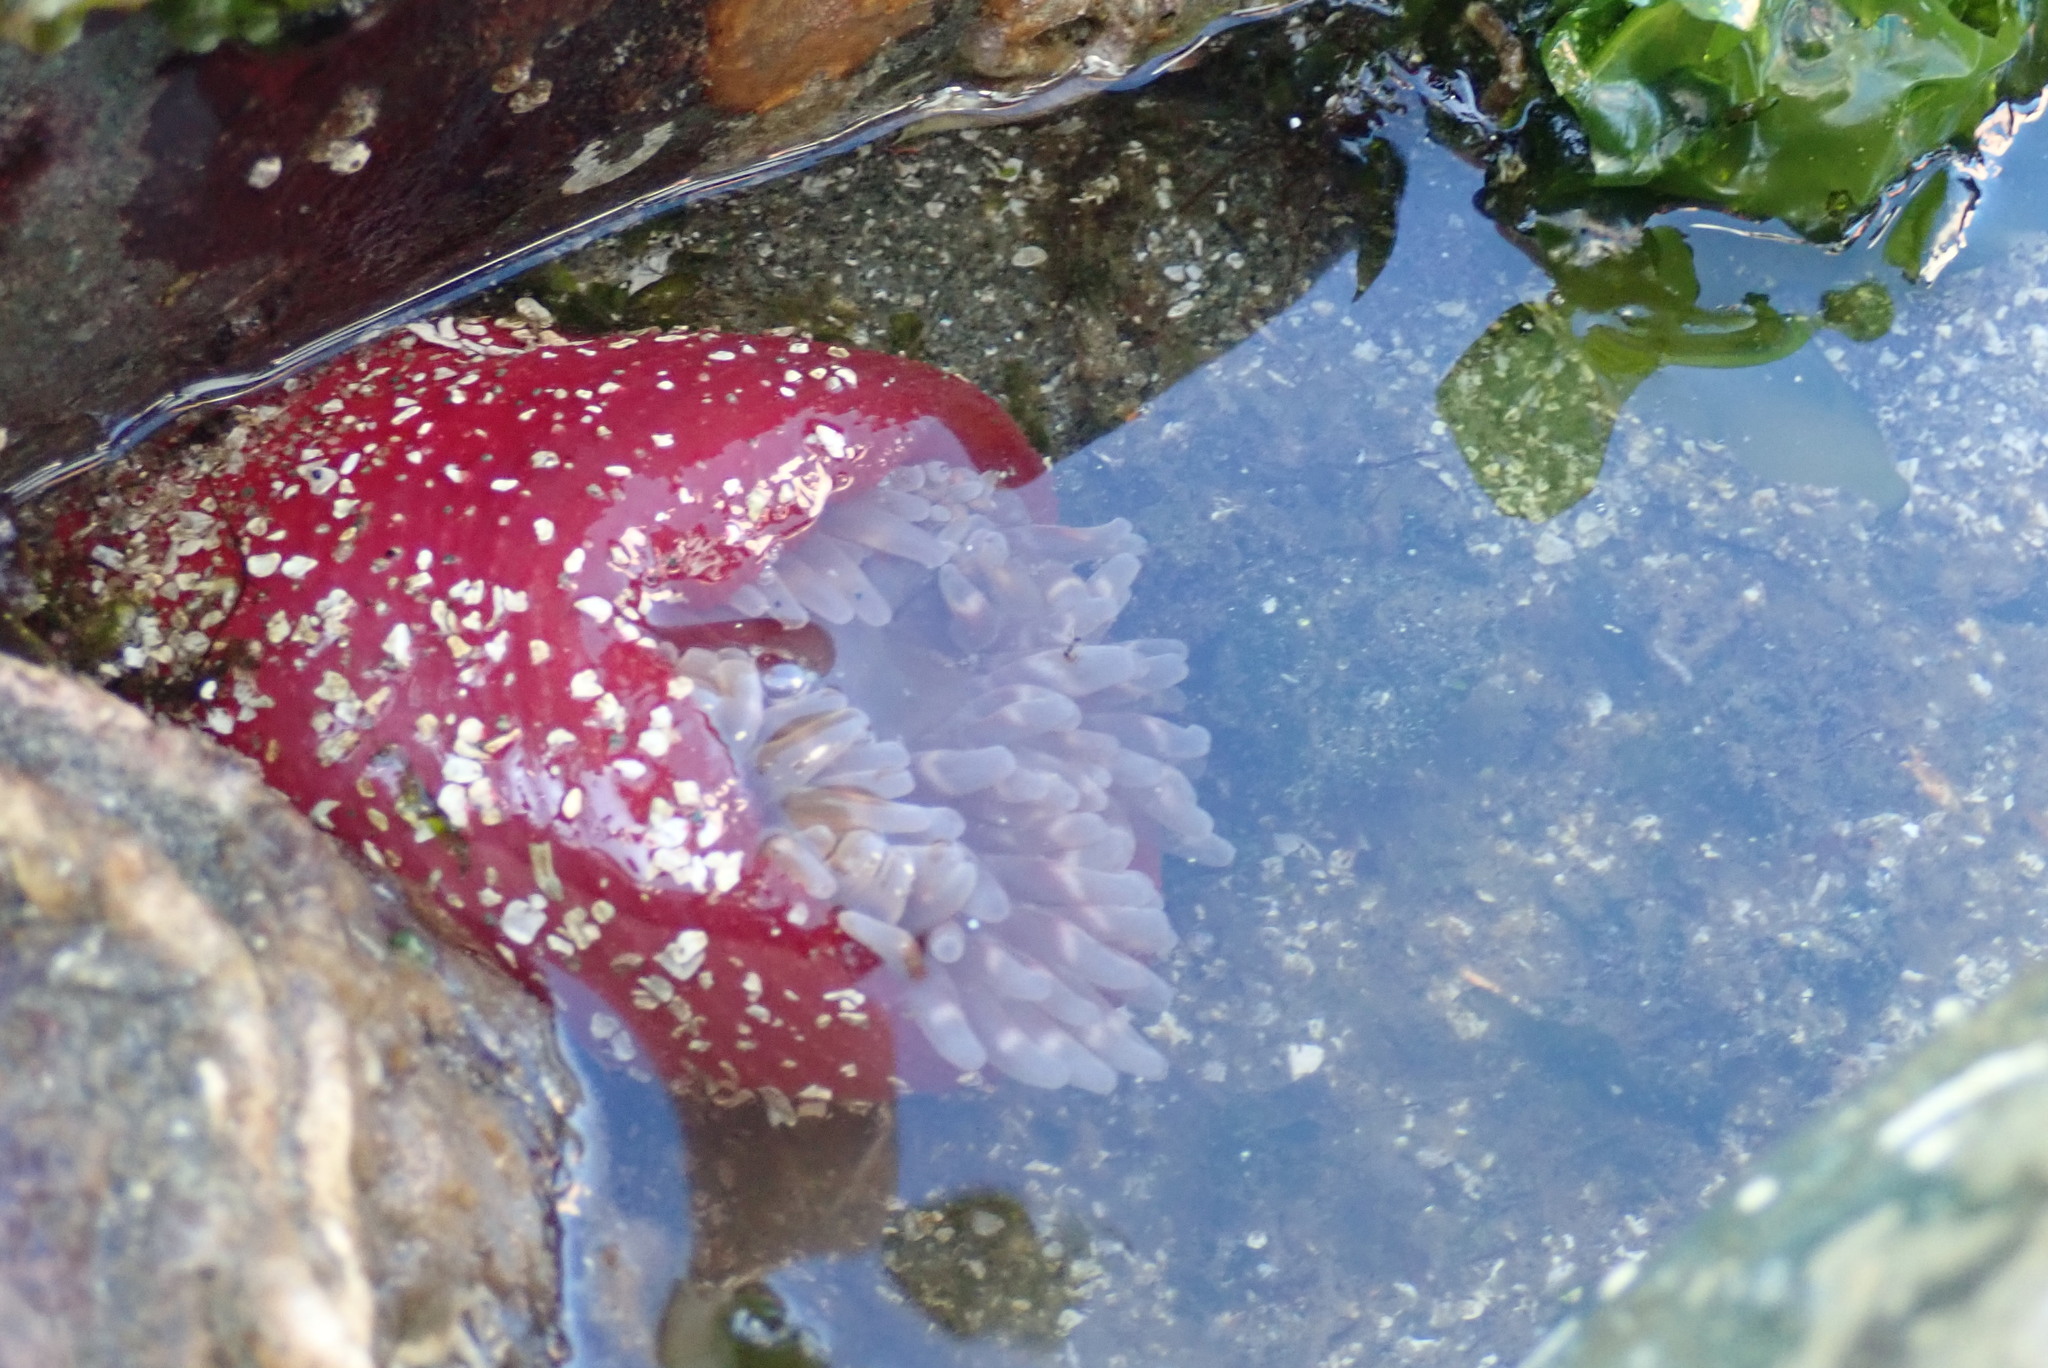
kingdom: Animalia
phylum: Cnidaria
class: Anthozoa
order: Actiniaria
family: Actiniidae
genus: Urticina
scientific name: Urticina clandestina
